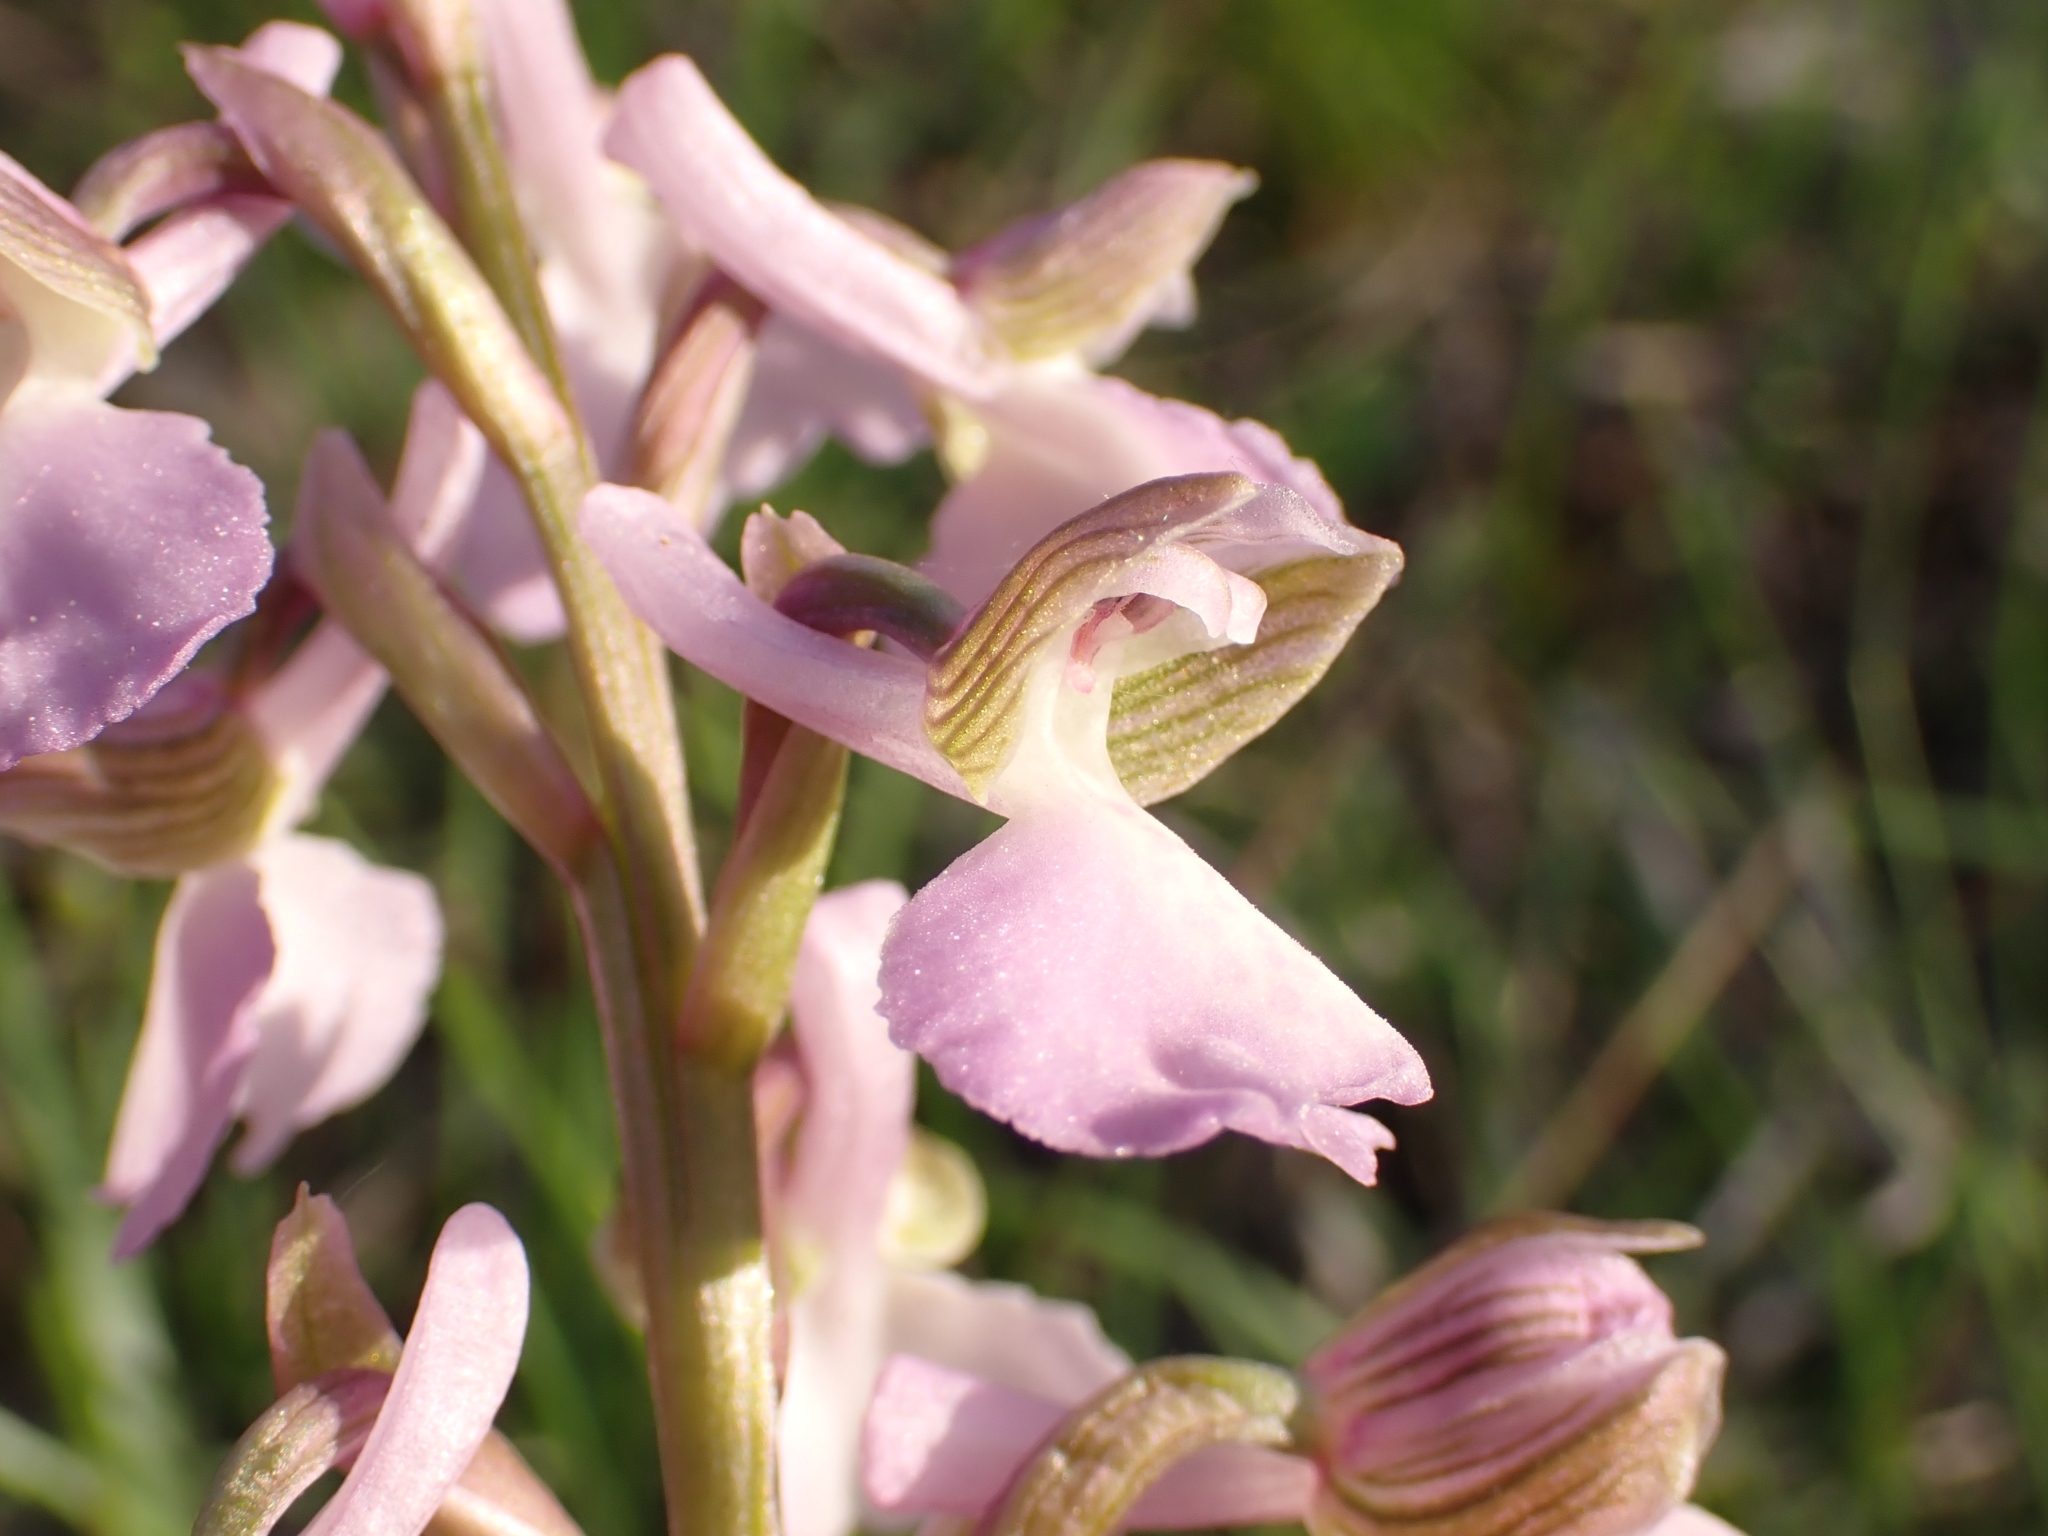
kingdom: Plantae
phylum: Tracheophyta
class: Liliopsida
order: Asparagales
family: Orchidaceae
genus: Anacamptis
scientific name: Anacamptis morio
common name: Green-winged orchid
